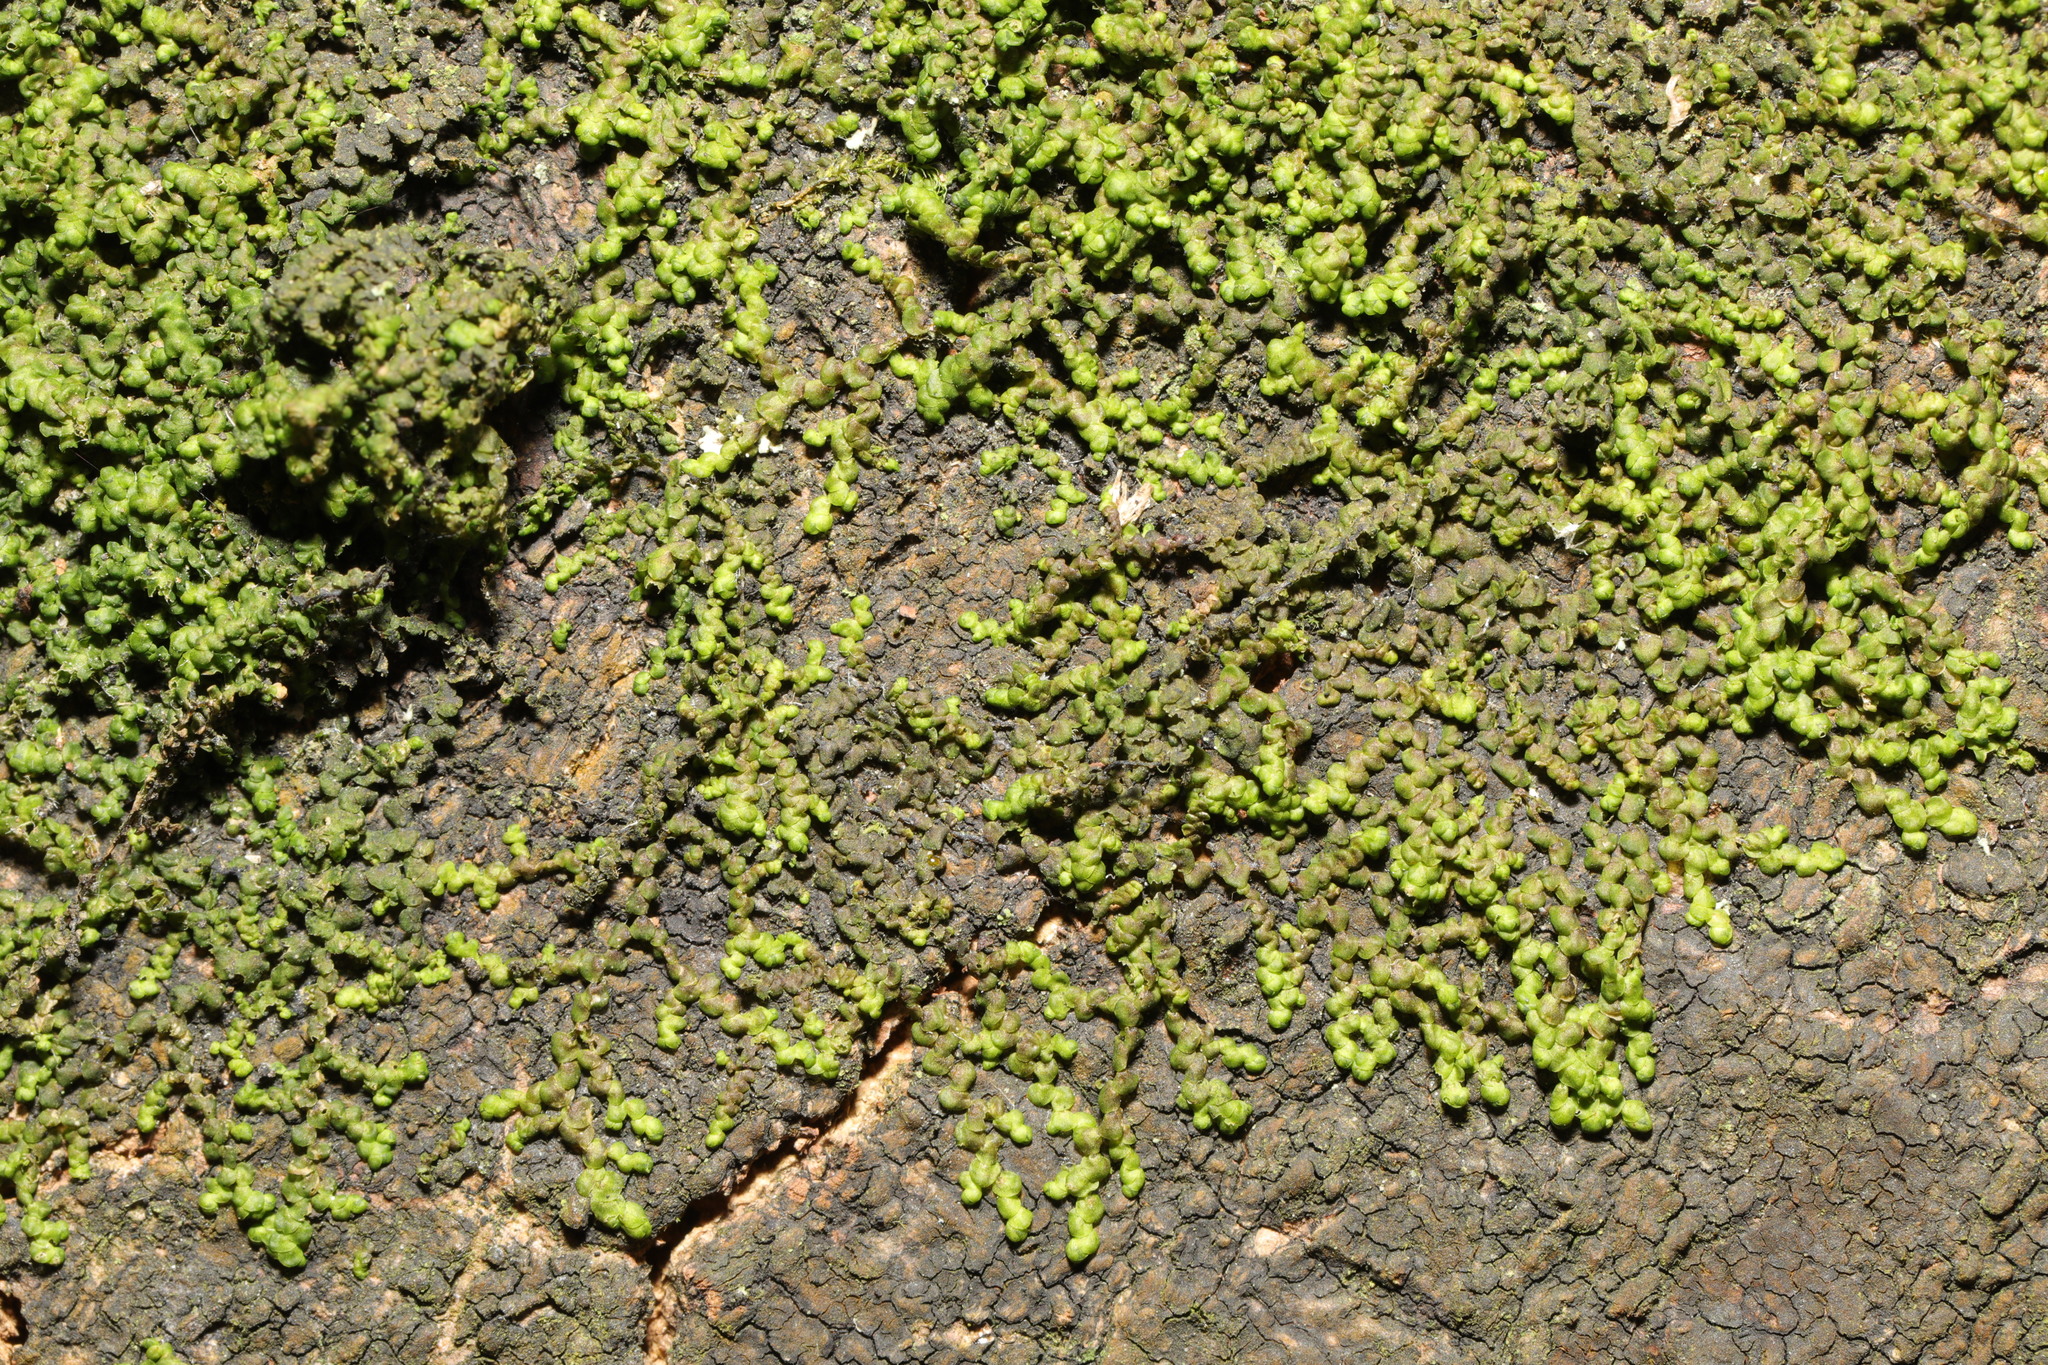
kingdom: Plantae
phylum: Marchantiophyta
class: Jungermanniopsida
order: Porellales
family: Frullaniaceae
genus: Frullania
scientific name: Frullania dilatata
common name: Dilated scalewort
